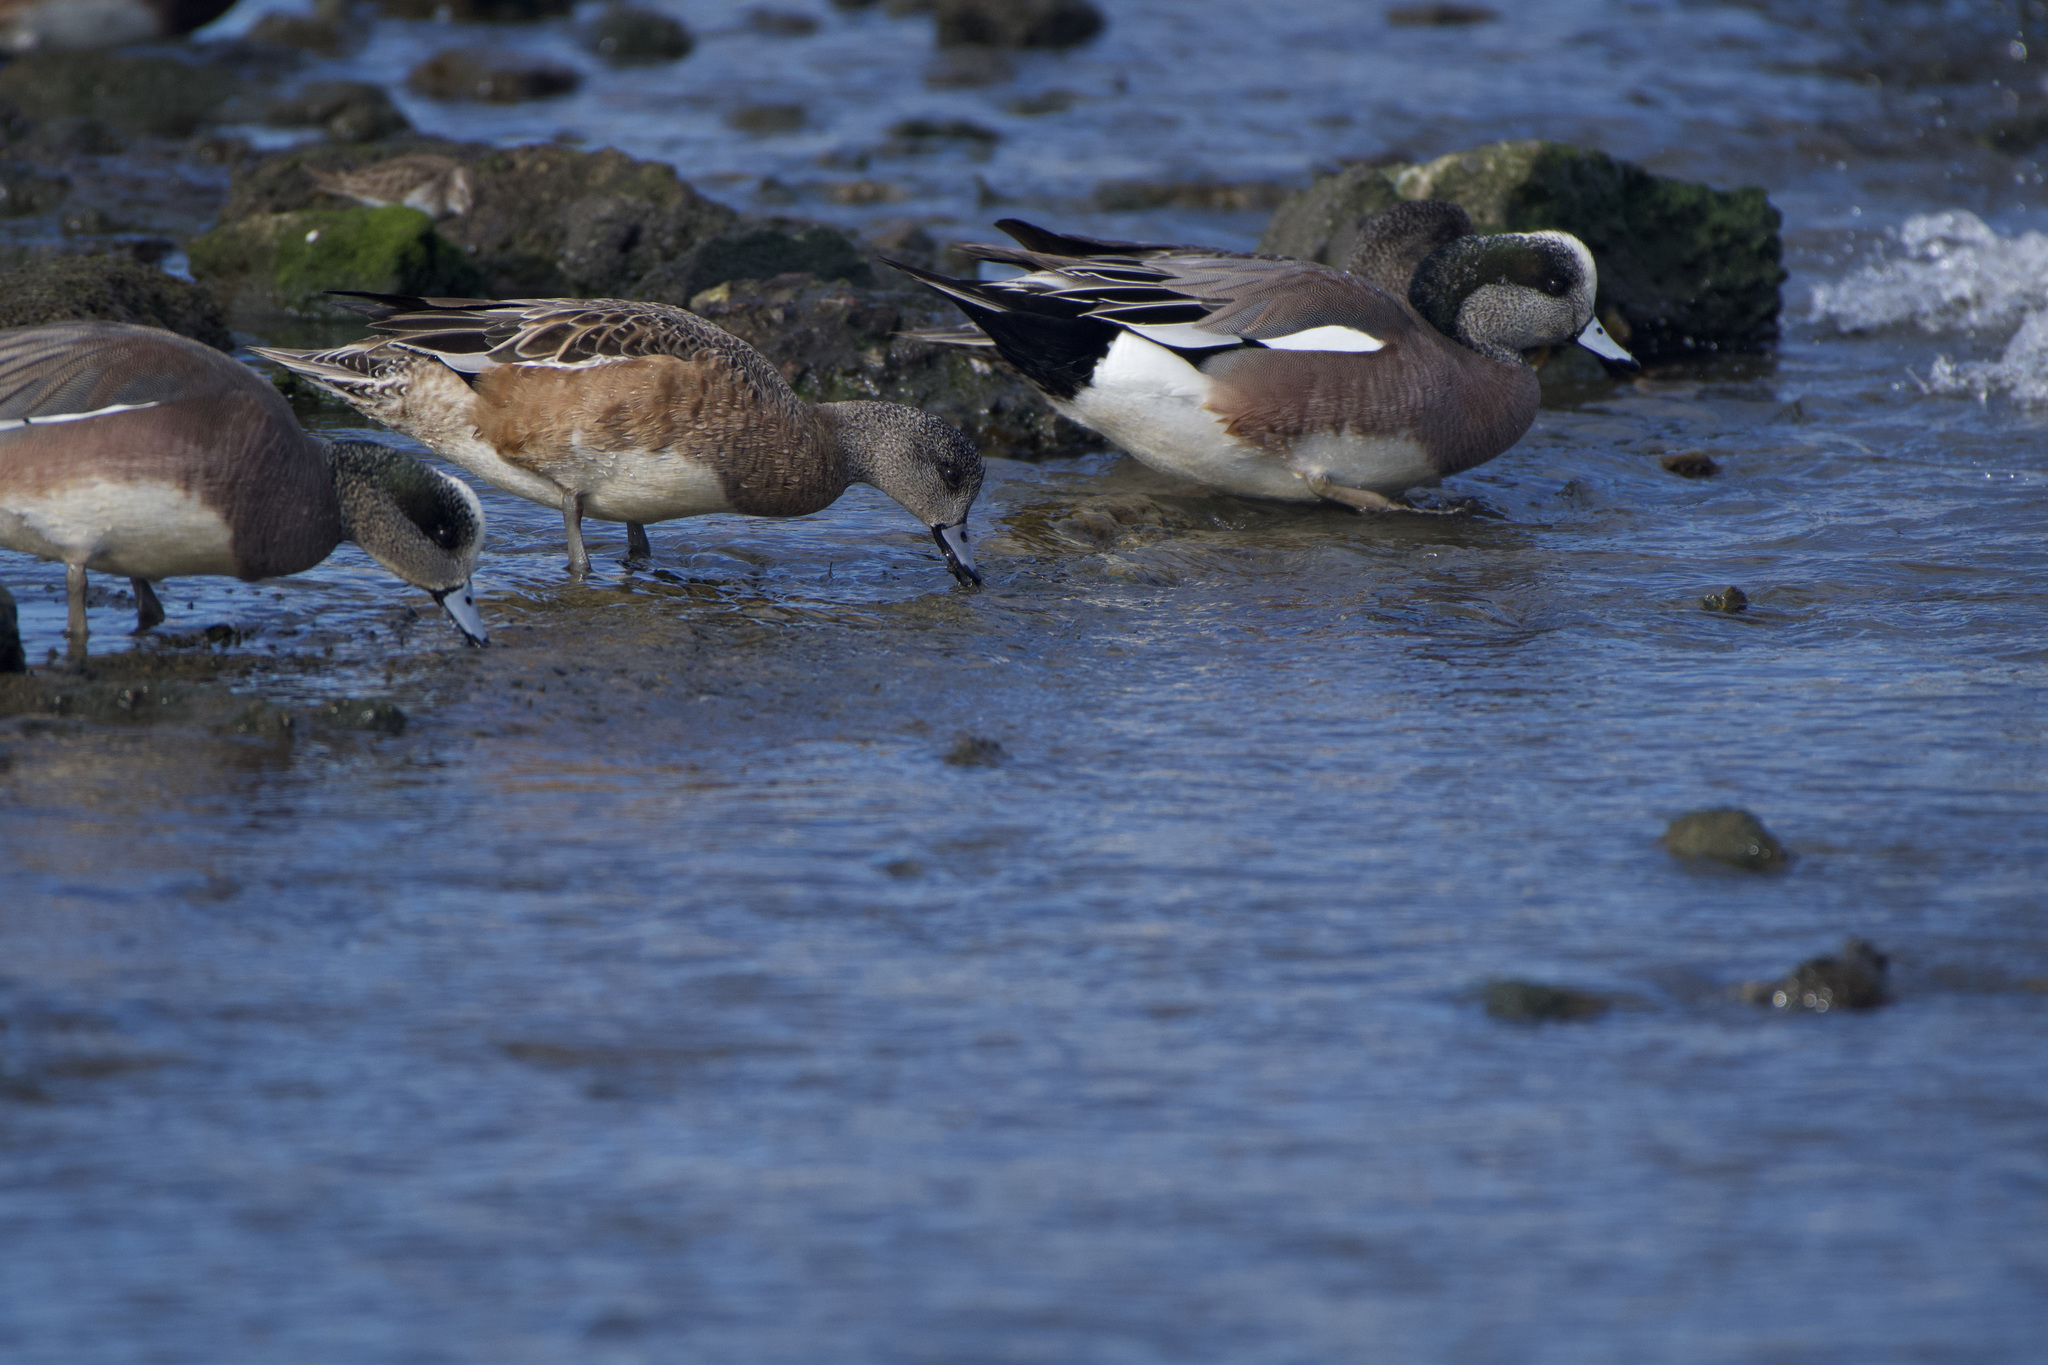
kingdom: Animalia
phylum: Chordata
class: Aves
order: Anseriformes
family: Anatidae
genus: Mareca
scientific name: Mareca americana
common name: American wigeon
